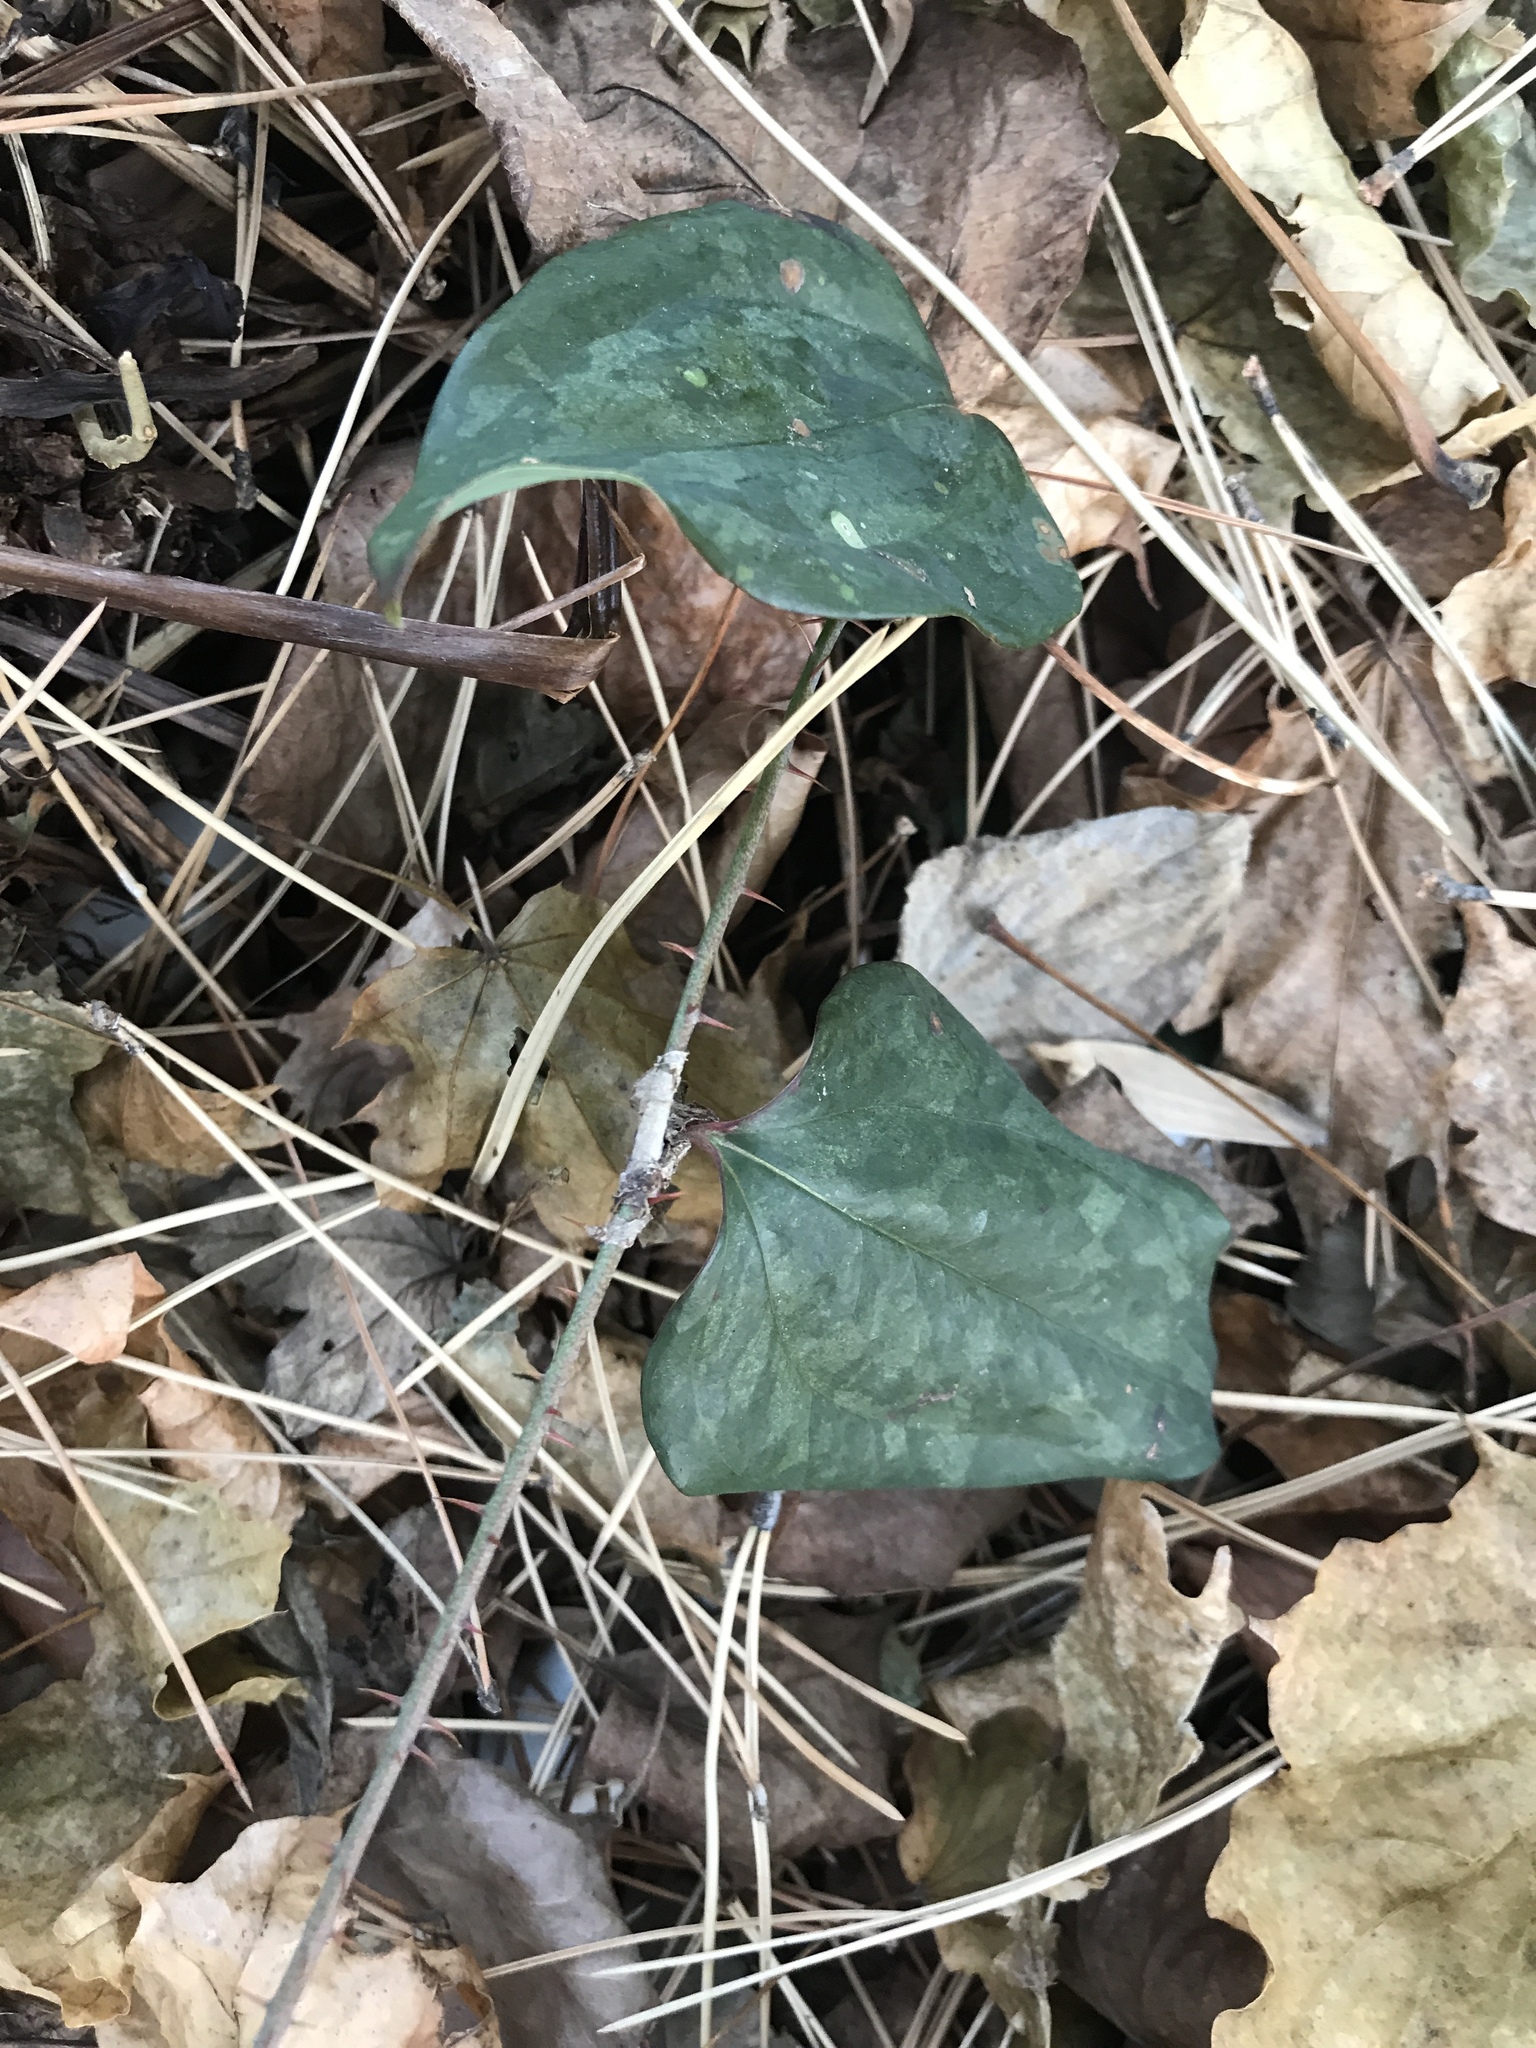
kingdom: Plantae
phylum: Tracheophyta
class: Liliopsida
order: Liliales
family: Smilacaceae
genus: Smilax
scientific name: Smilax glauca
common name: Cat greenbrier
